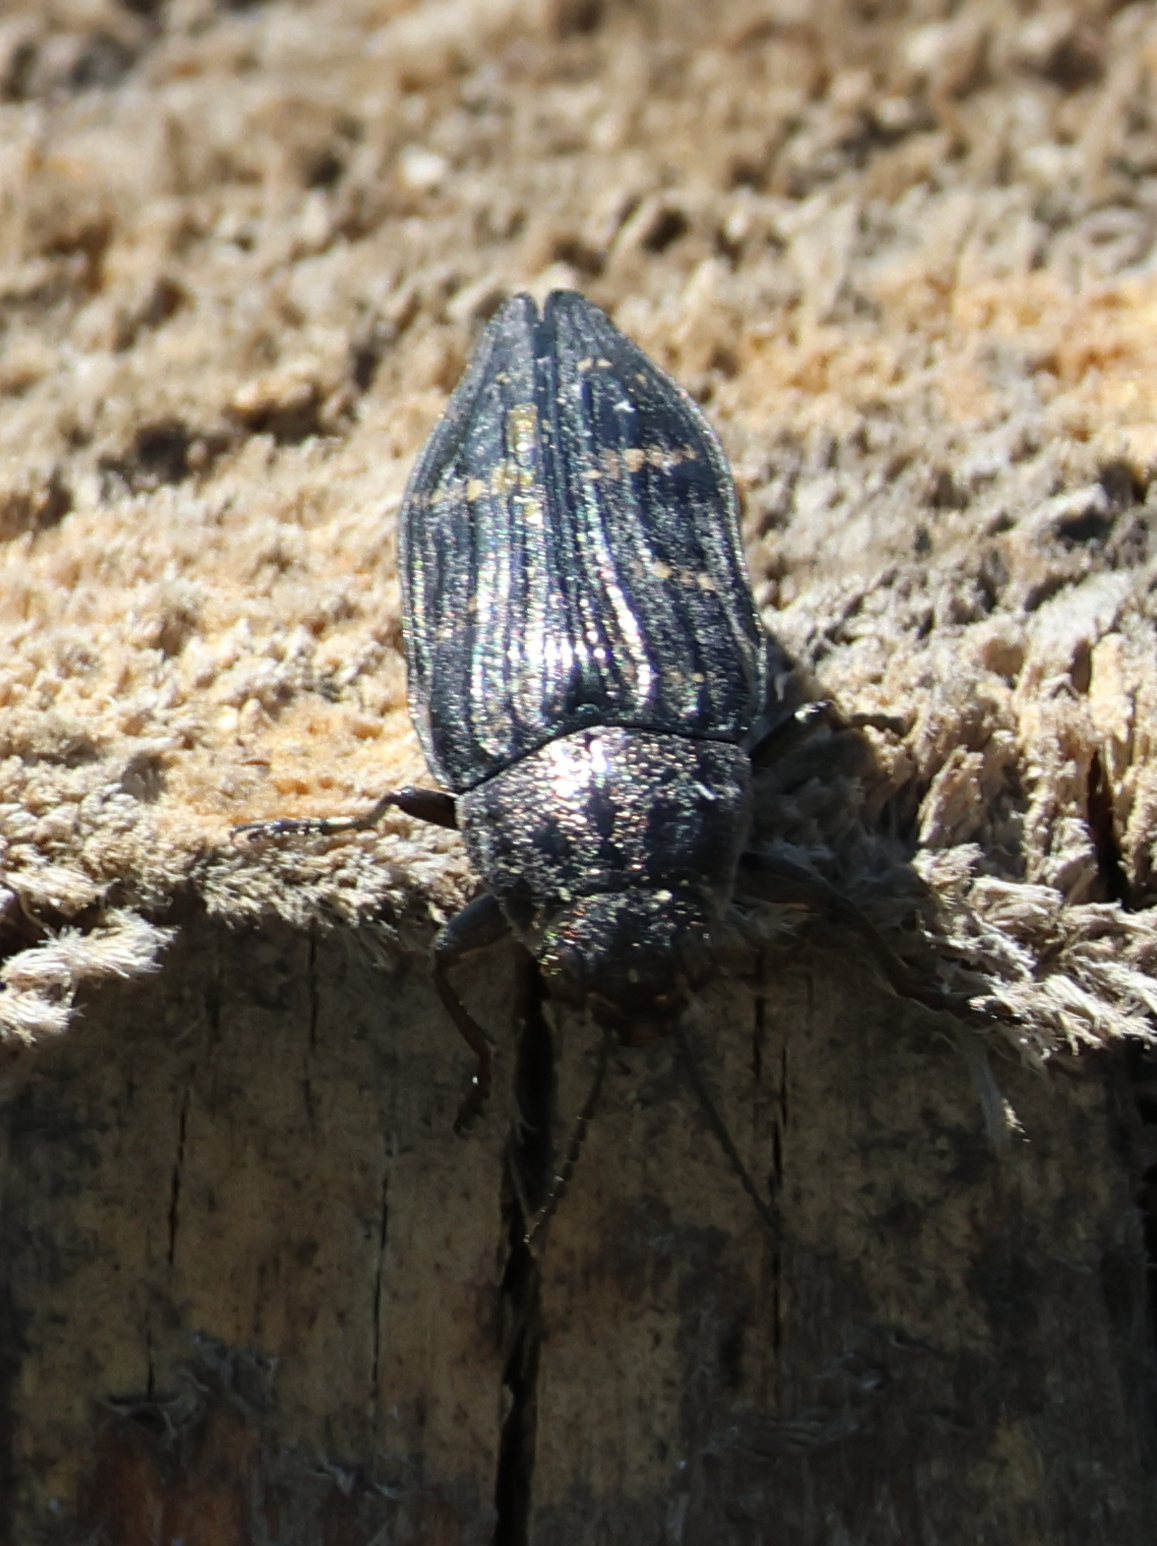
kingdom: Animalia
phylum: Arthropoda
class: Insecta
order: Coleoptera
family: Buprestidae
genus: Buprestis
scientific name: Buprestis consularis
